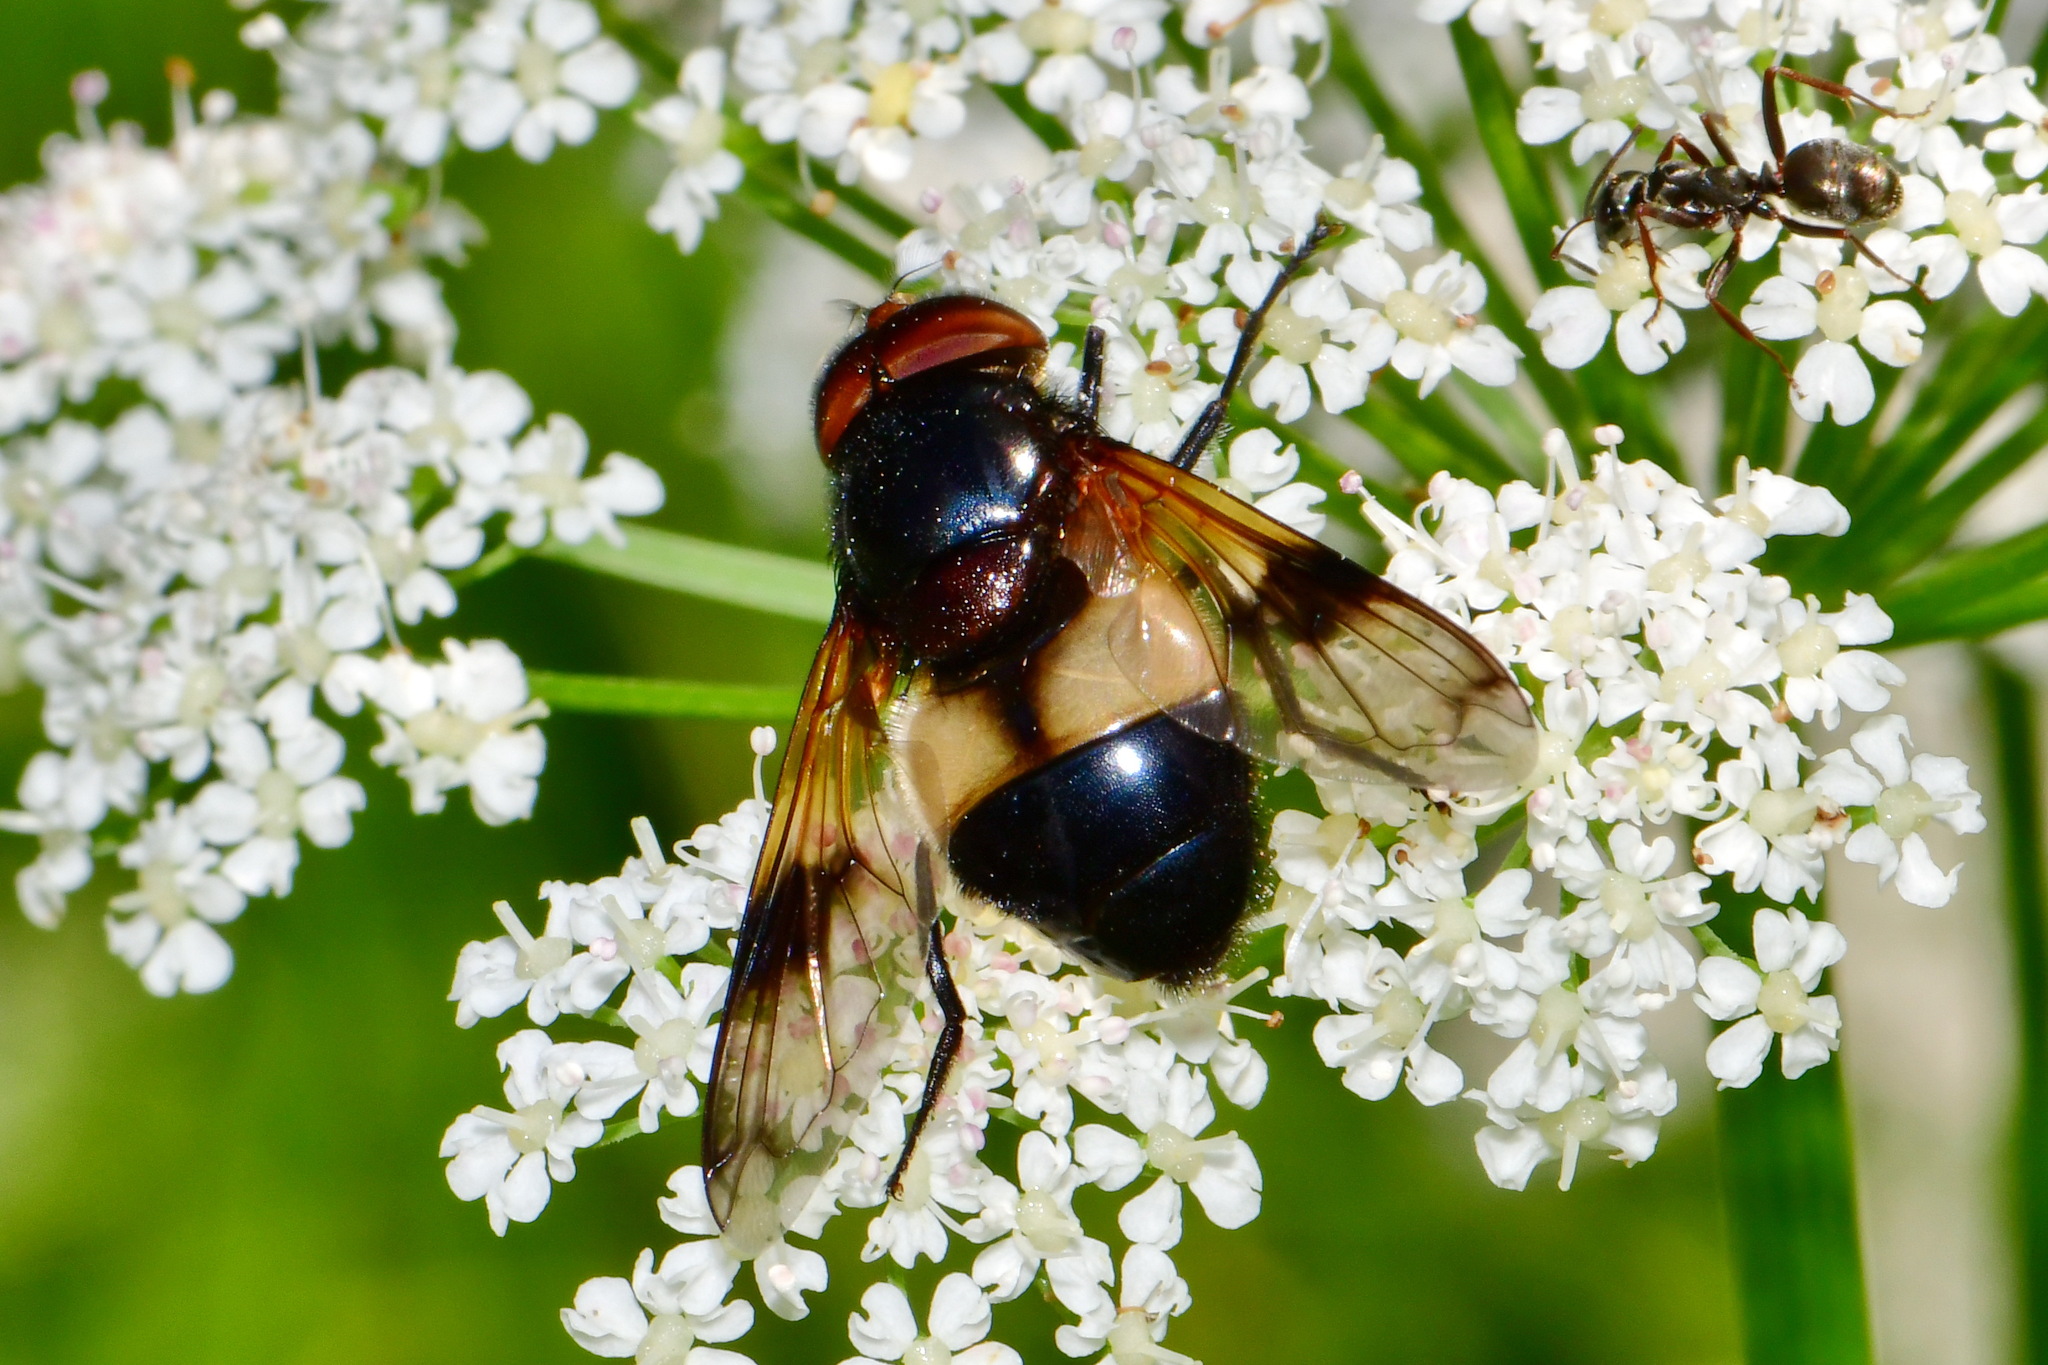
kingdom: Animalia
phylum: Arthropoda
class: Insecta
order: Diptera
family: Syrphidae
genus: Volucella
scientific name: Volucella pellucens
